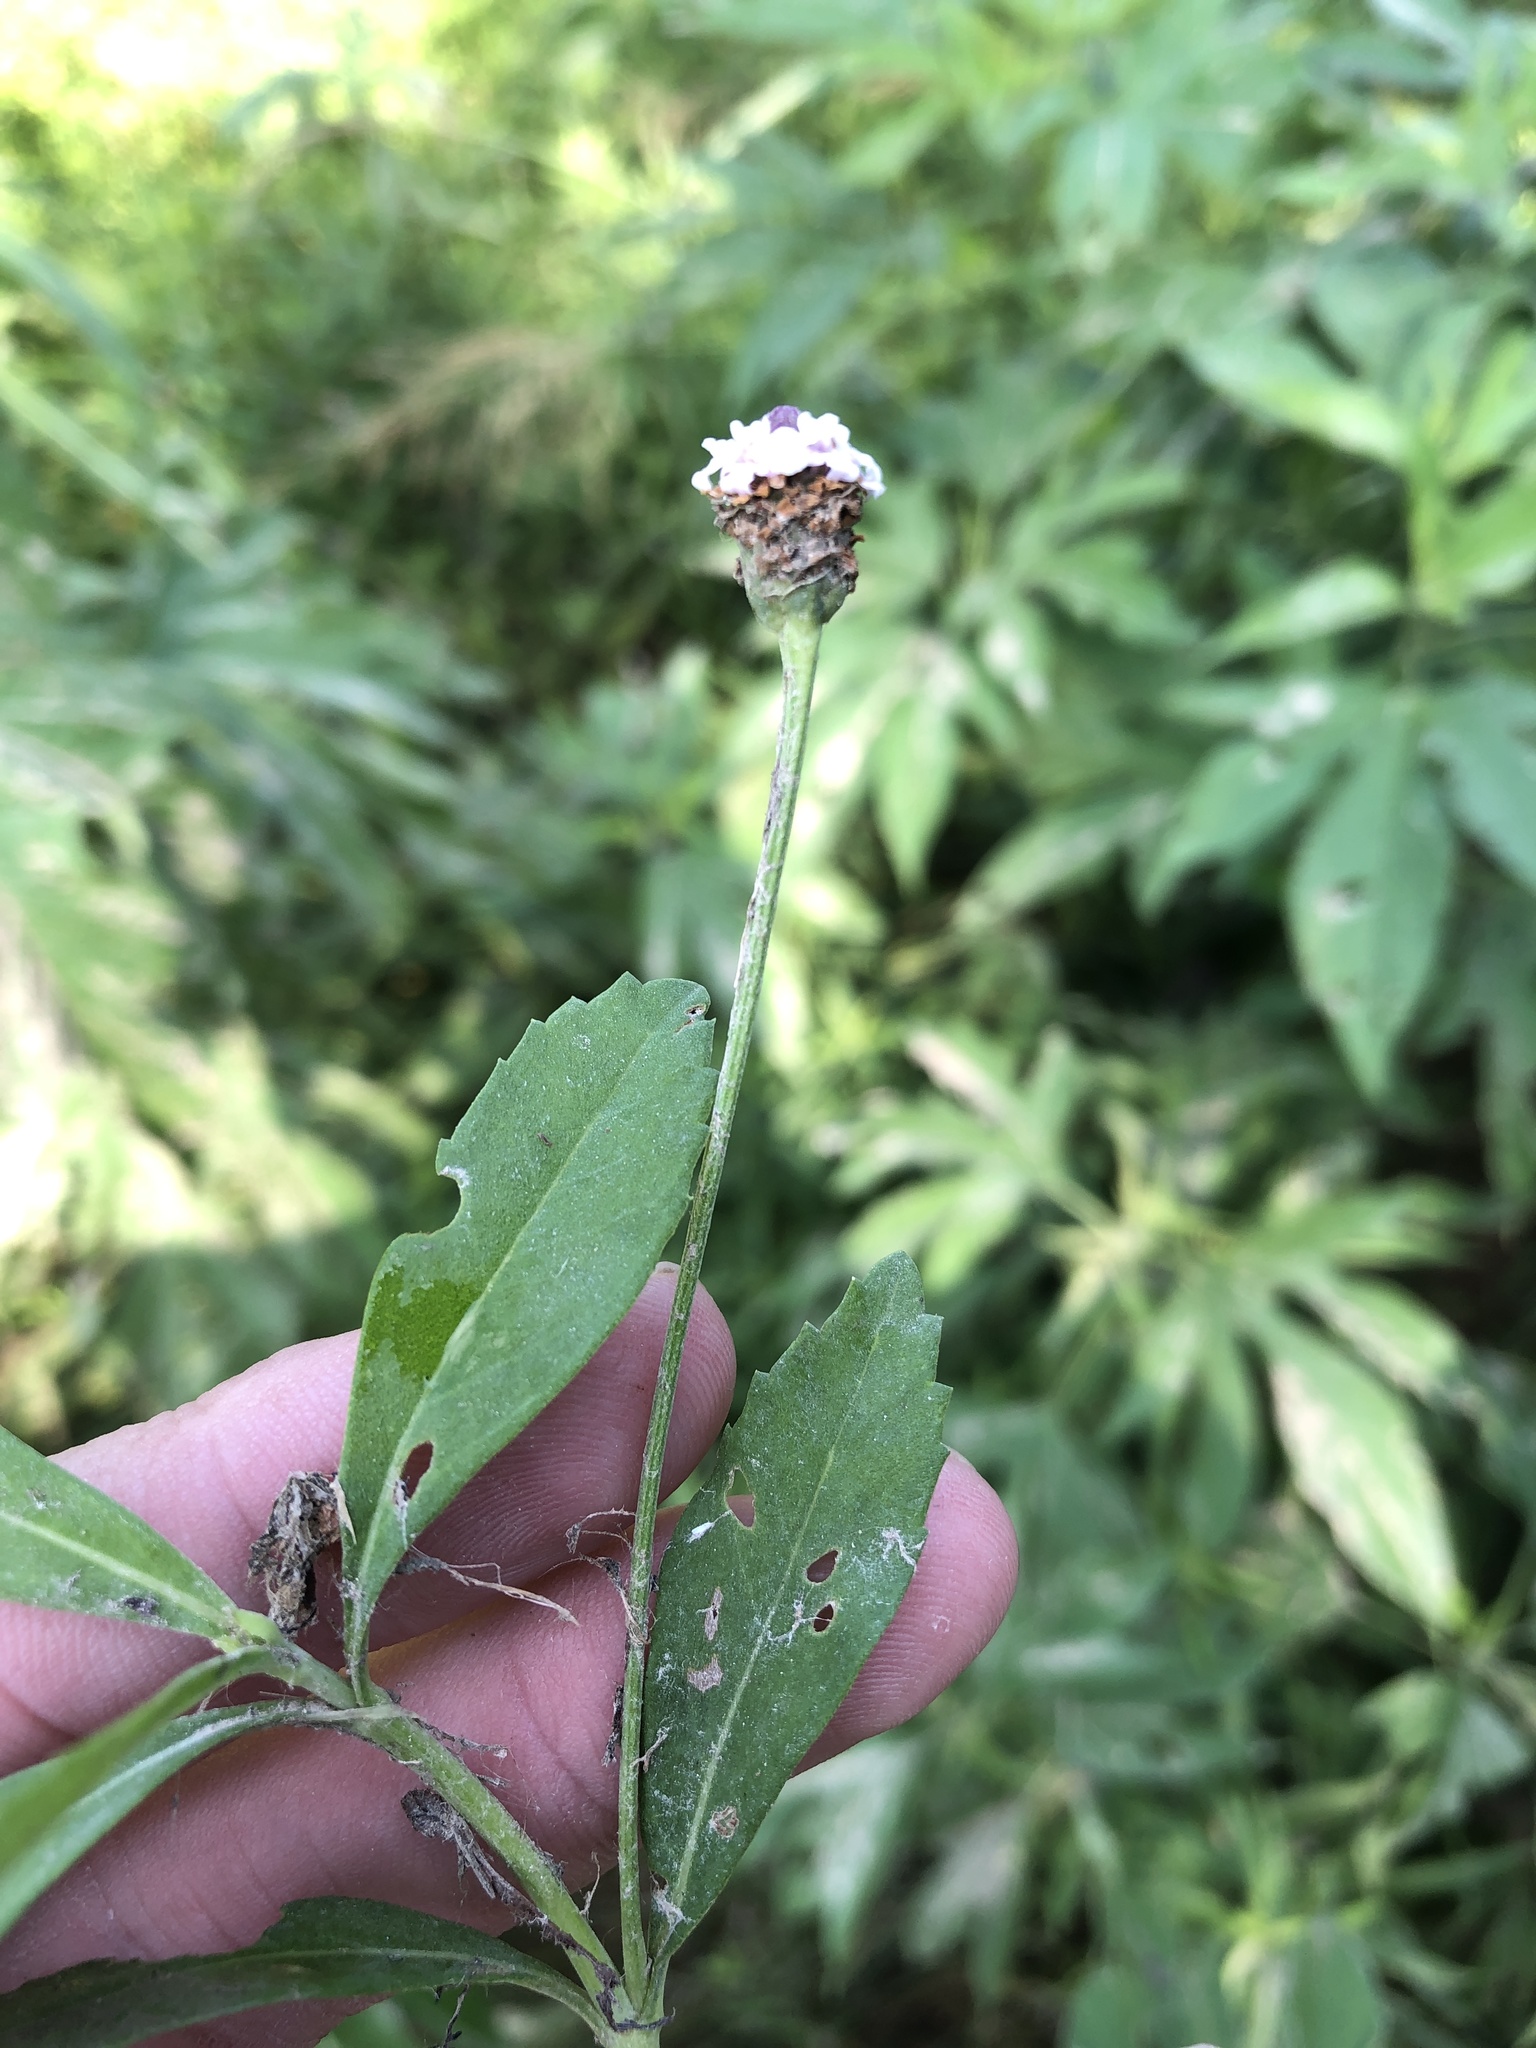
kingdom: Plantae
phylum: Tracheophyta
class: Magnoliopsida
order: Lamiales
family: Verbenaceae
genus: Phyla
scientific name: Phyla lanceolata
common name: Northern fogfruit
